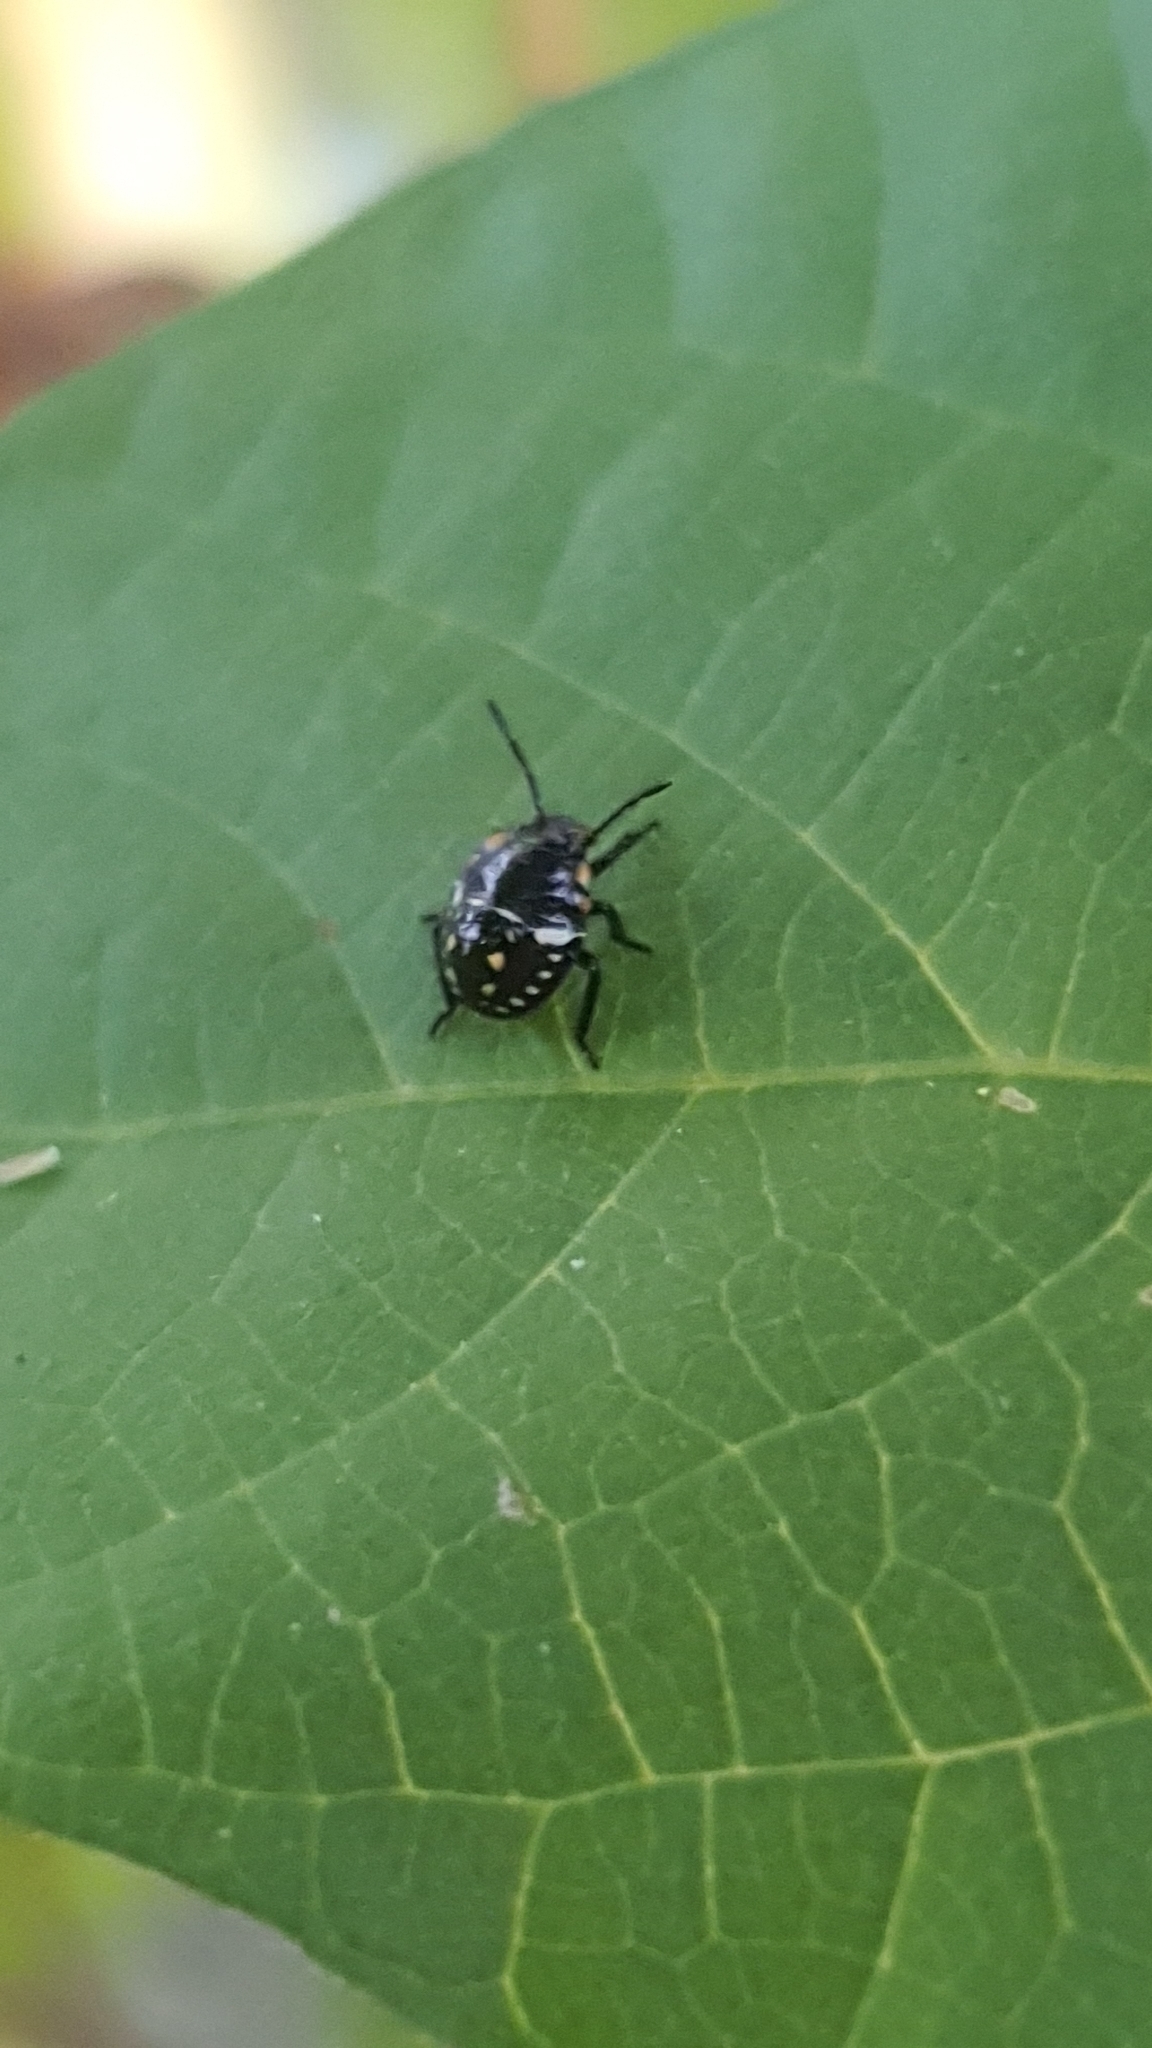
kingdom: Animalia
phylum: Arthropoda
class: Insecta
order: Hemiptera
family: Pentatomidae
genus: Nezara
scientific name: Nezara viridula
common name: Southern green stink bug
